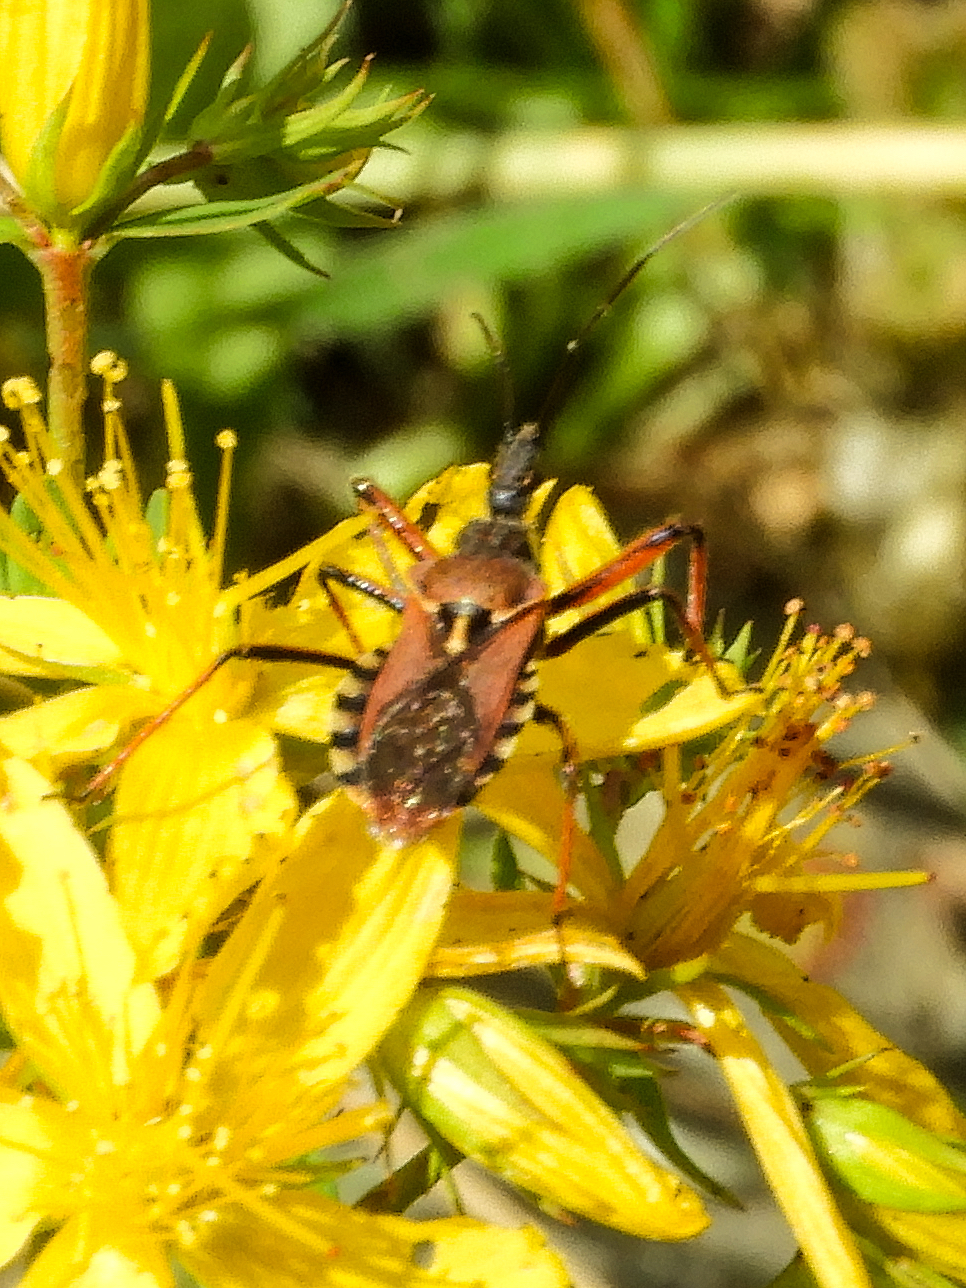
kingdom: Animalia
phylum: Arthropoda
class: Insecta
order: Hemiptera
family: Reduviidae
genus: Rhynocoris
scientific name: Rhynocoris erythropus
